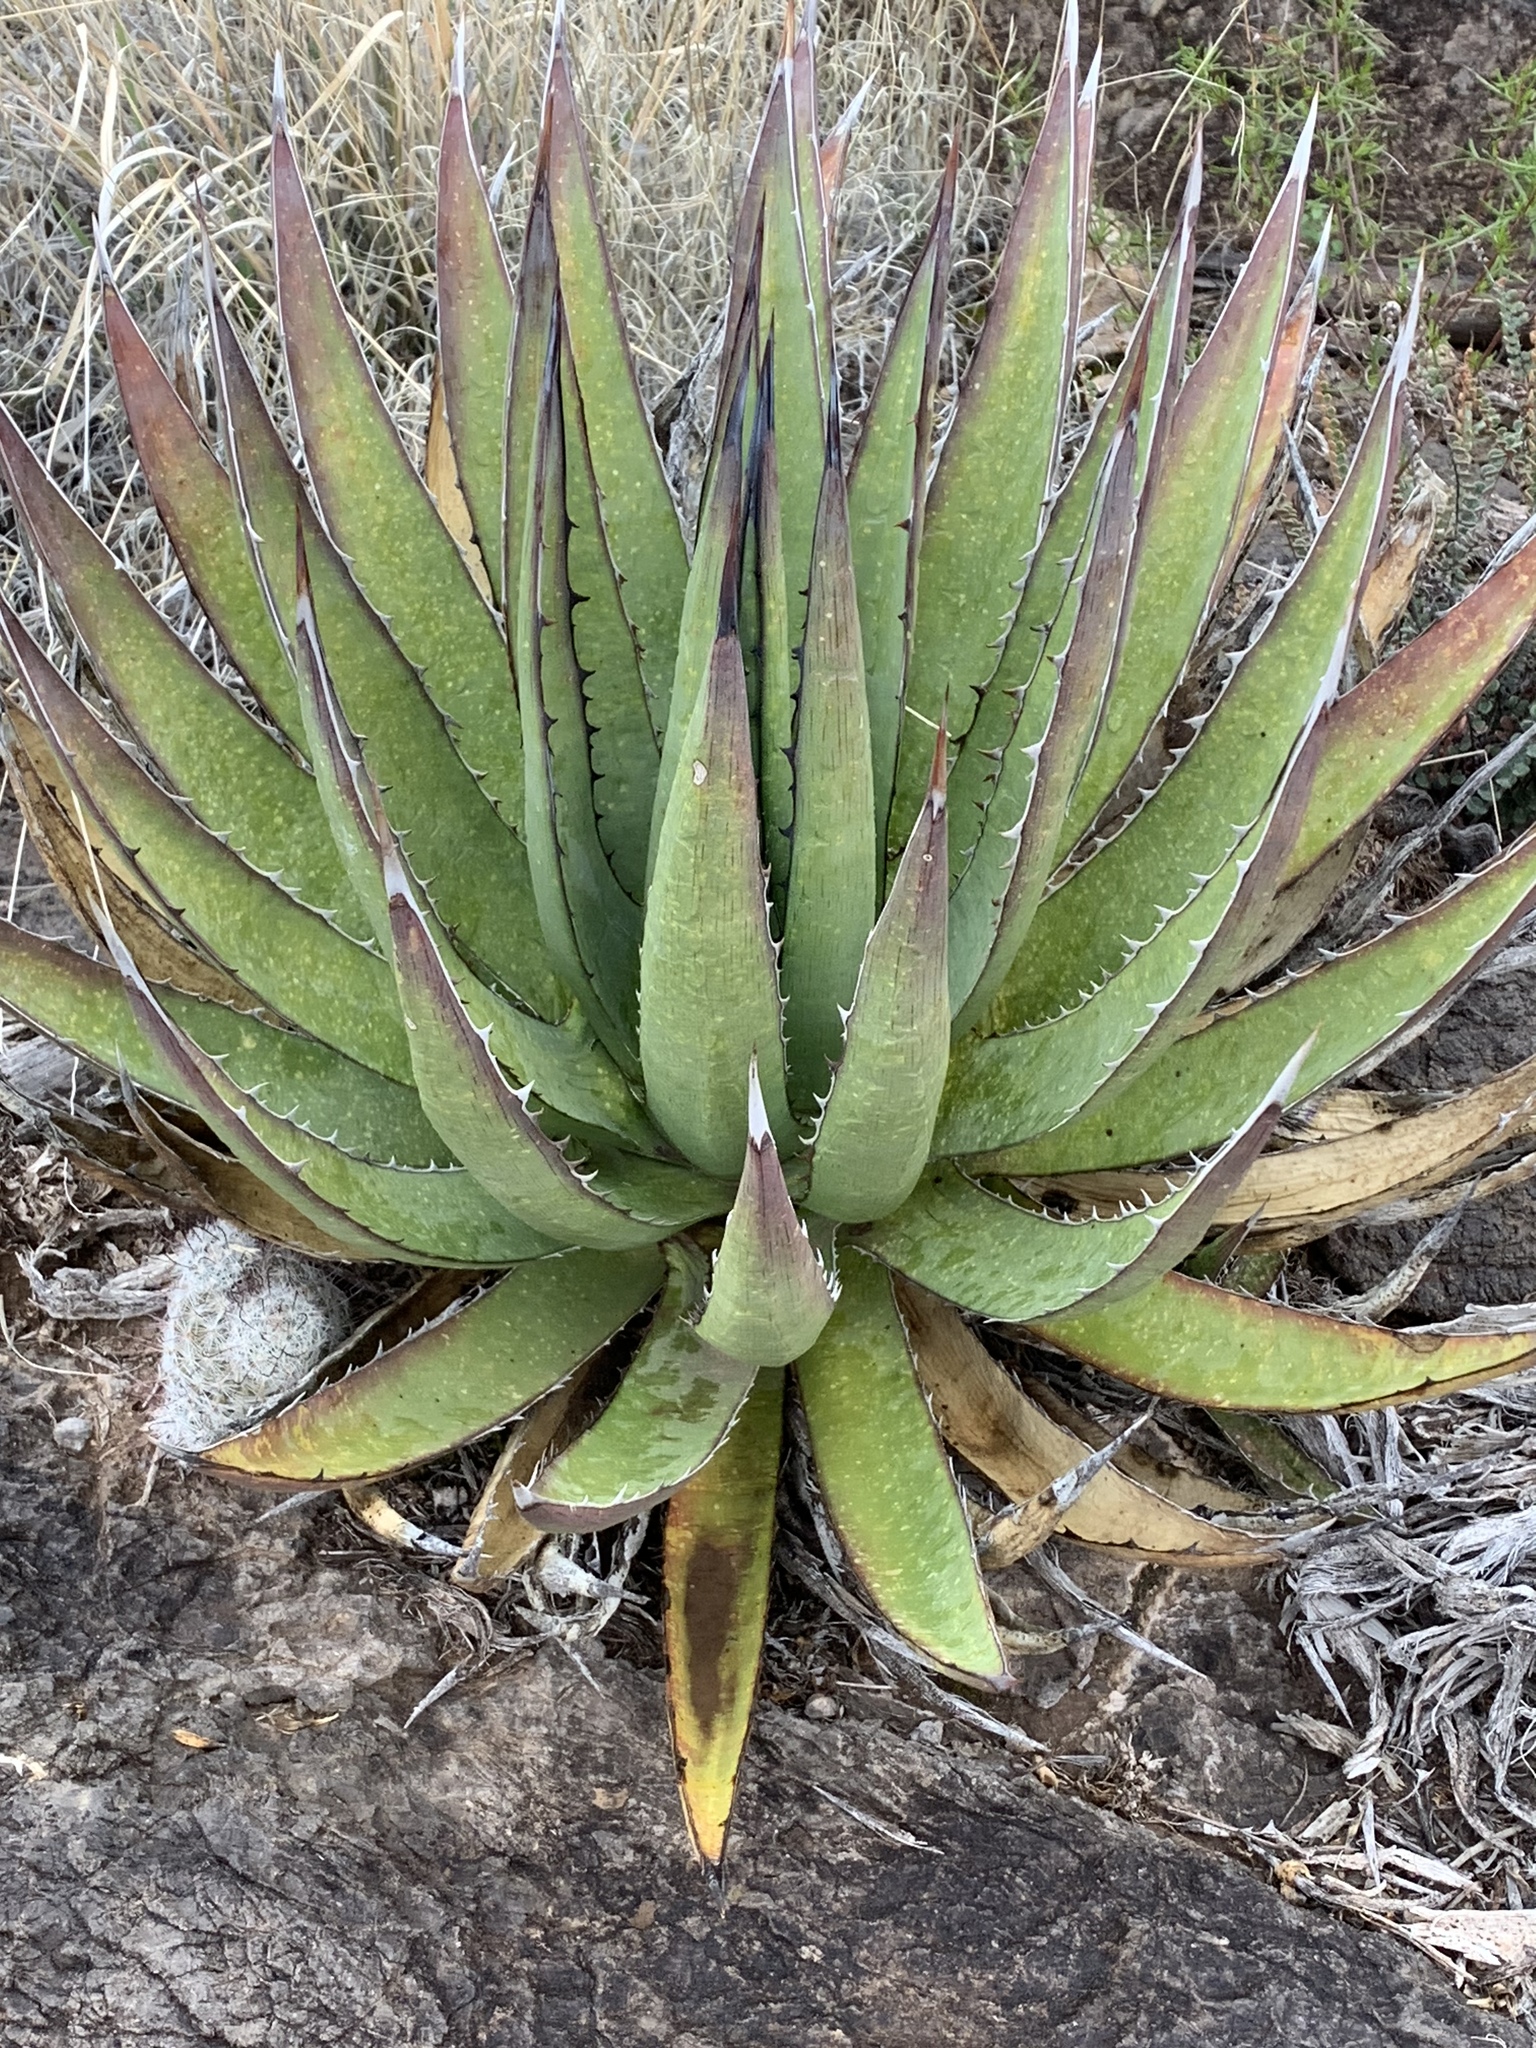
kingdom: Plantae
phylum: Tracheophyta
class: Liliopsida
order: Asparagales
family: Asparagaceae
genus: Agave
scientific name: Agave lechuguilla
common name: Lecheguilla agave
